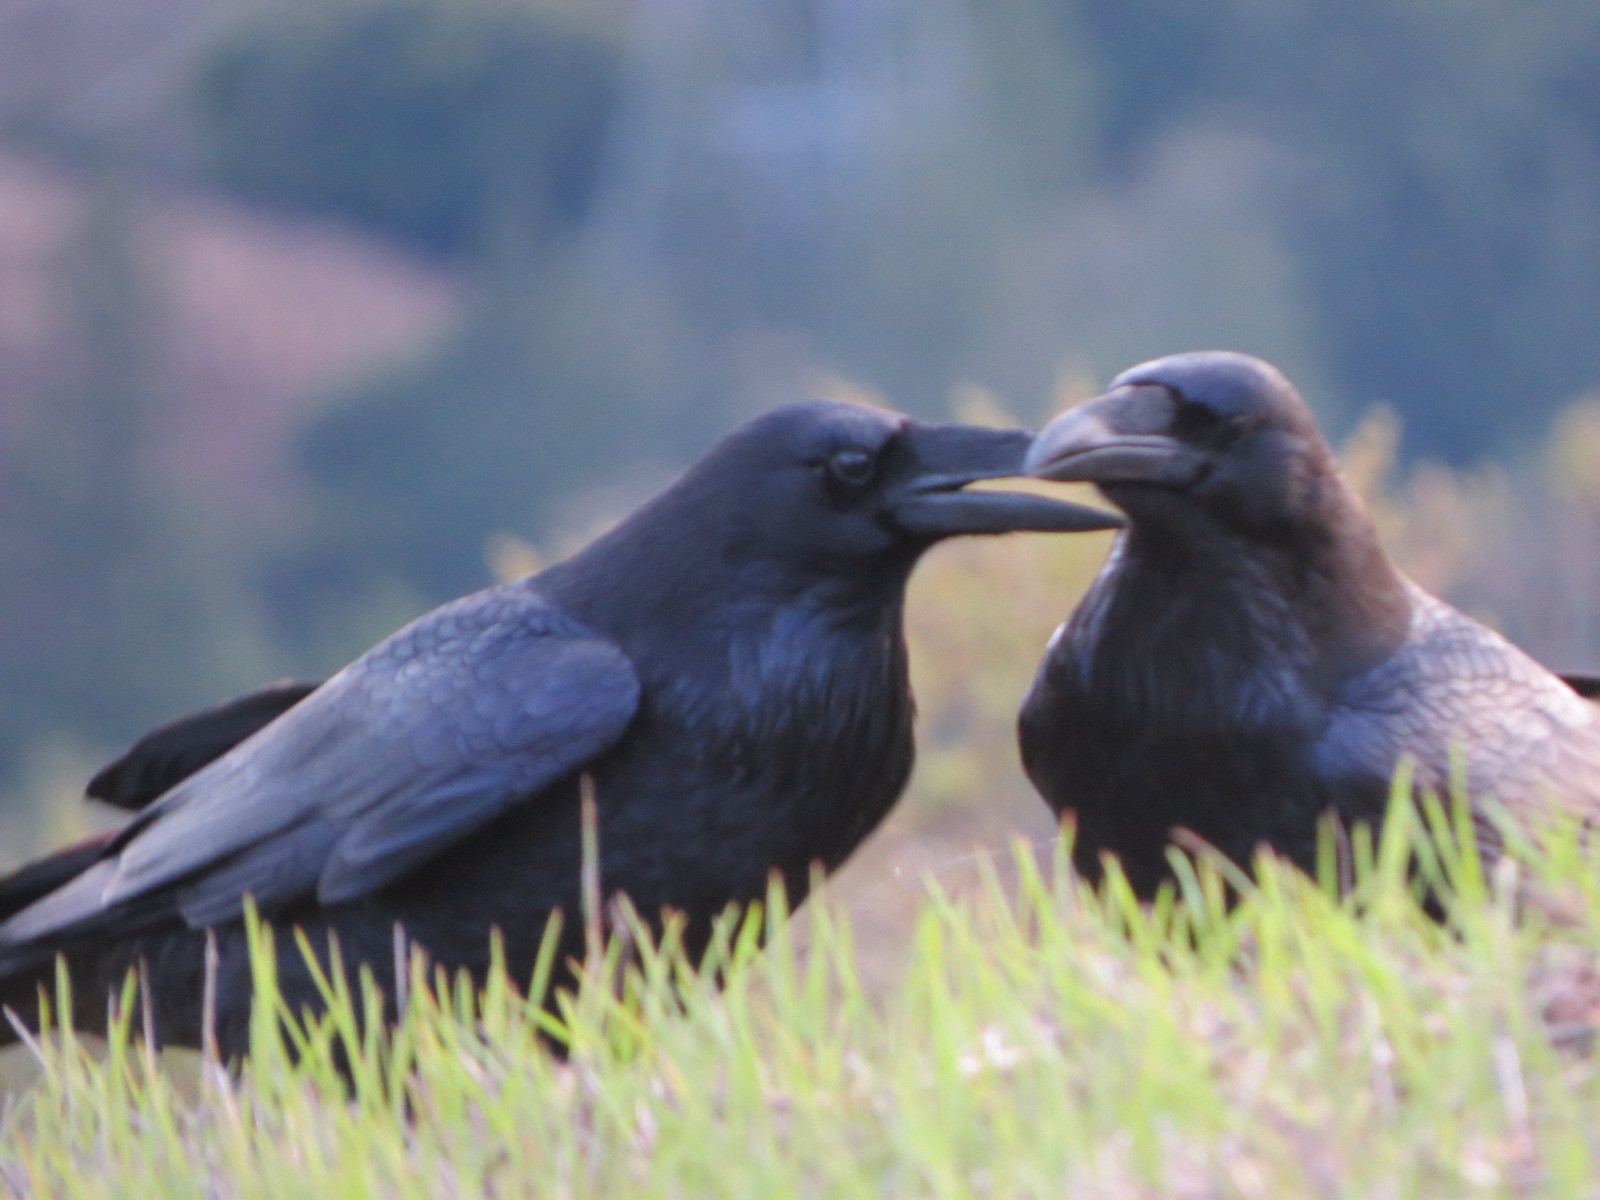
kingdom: Animalia
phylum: Chordata
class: Aves
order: Passeriformes
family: Corvidae
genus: Corvus
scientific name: Corvus corax
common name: Common raven
